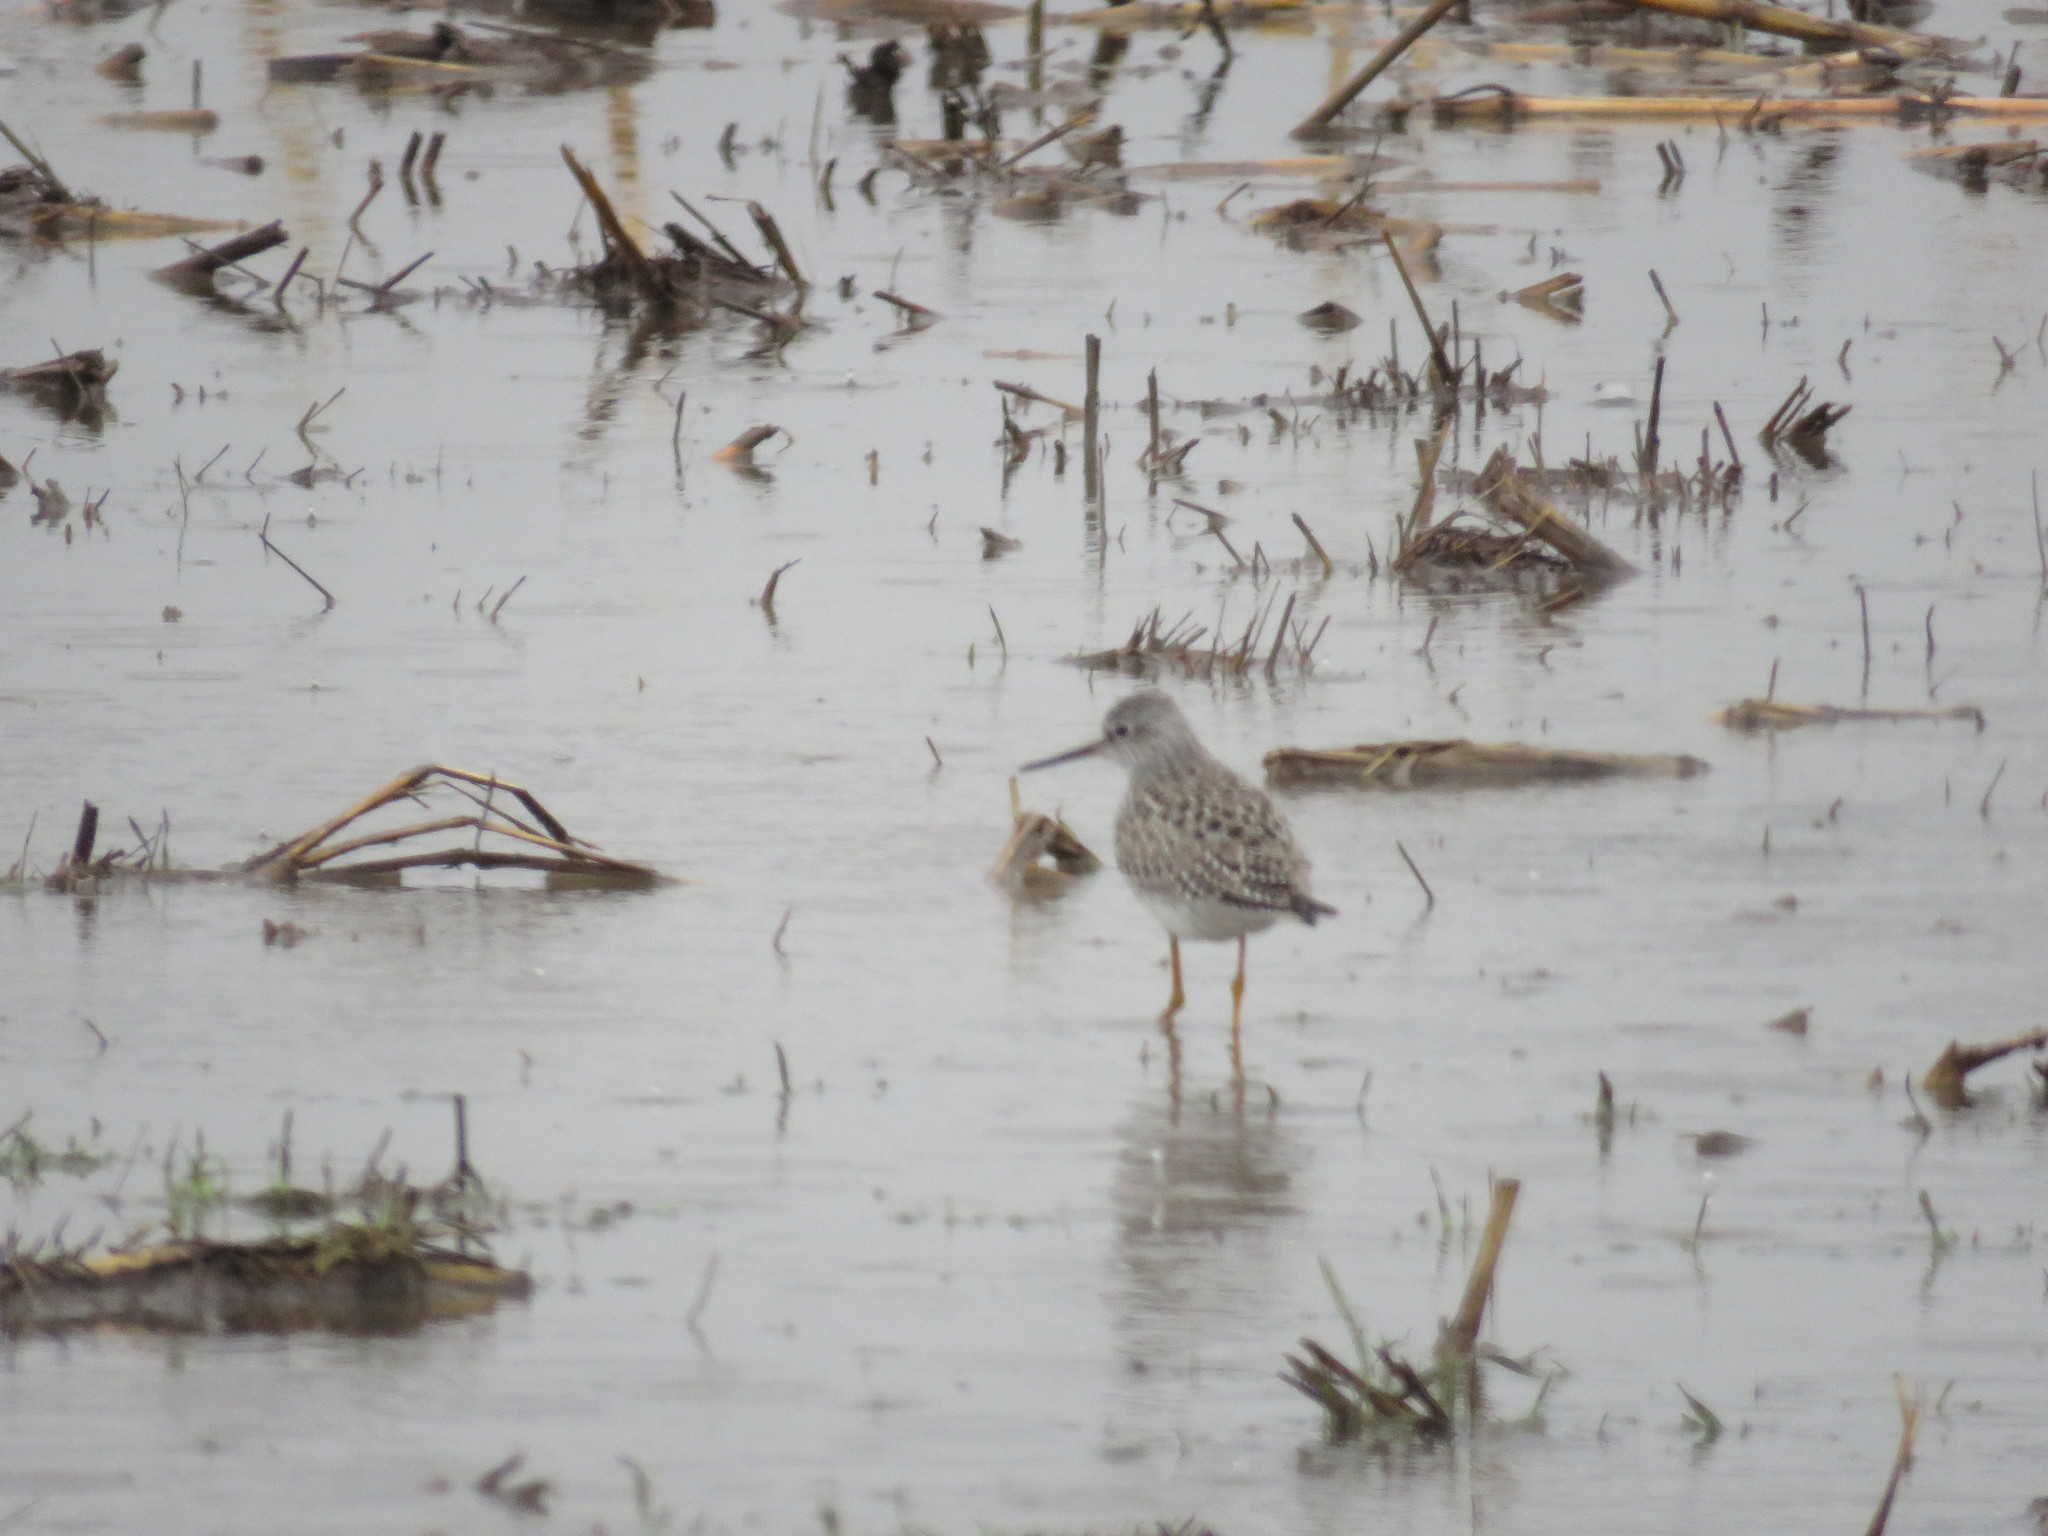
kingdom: Animalia
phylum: Chordata
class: Aves
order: Charadriiformes
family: Scolopacidae
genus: Tringa
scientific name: Tringa melanoleuca
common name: Greater yellowlegs
